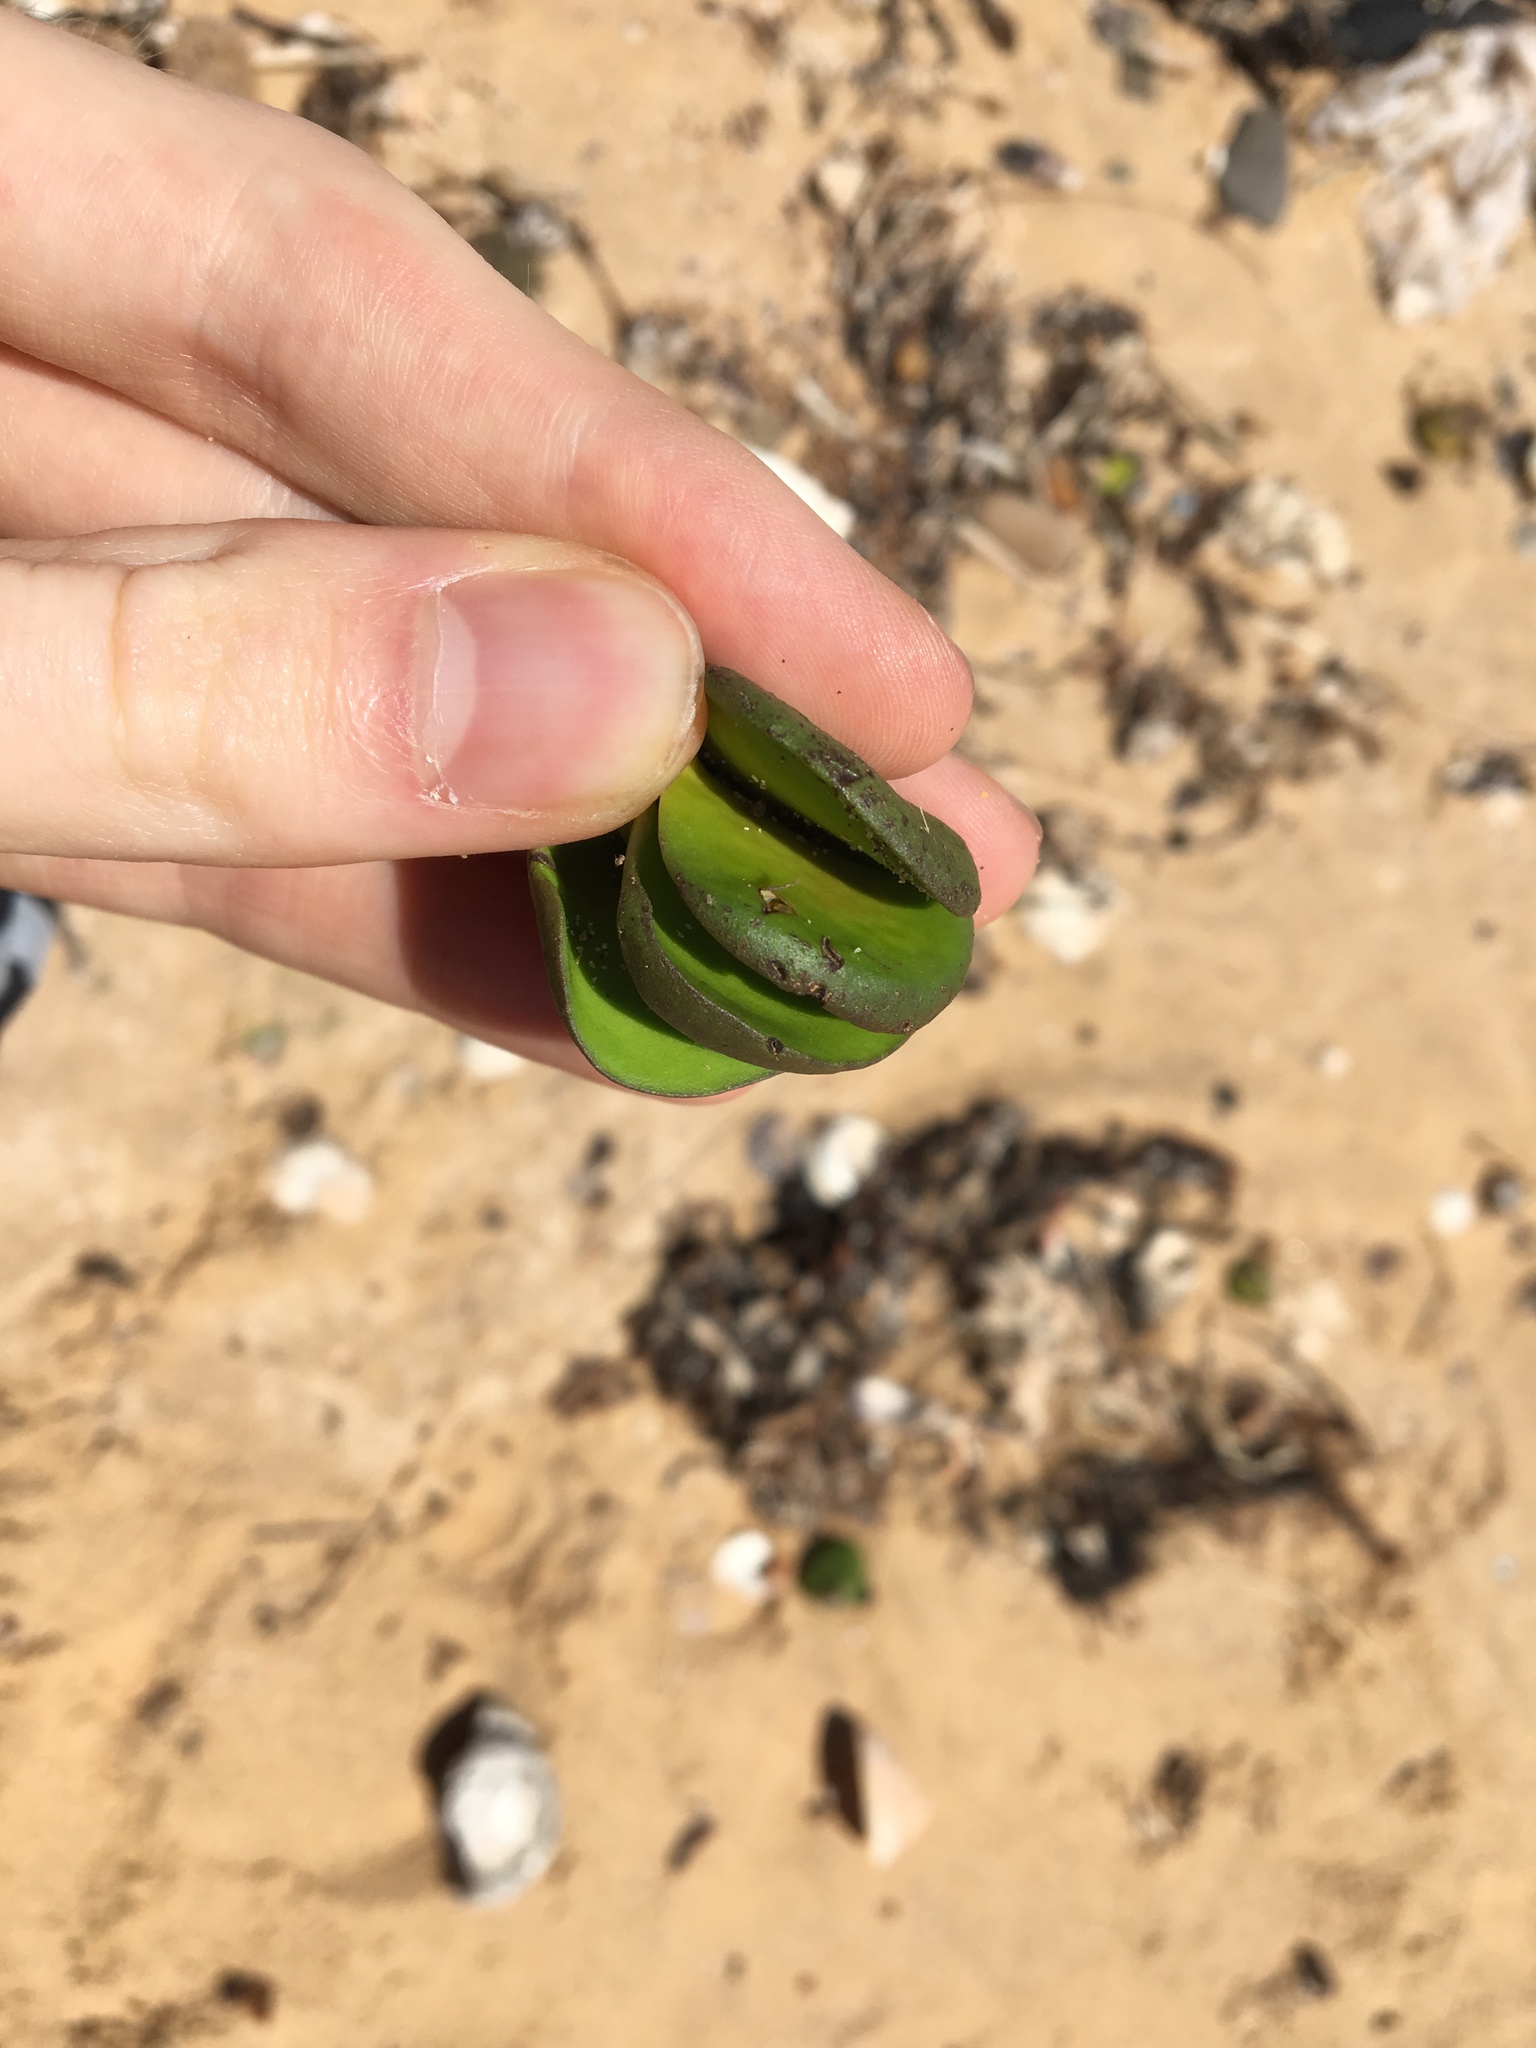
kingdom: Plantae
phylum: Tracheophyta
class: Magnoliopsida
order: Lamiales
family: Acanthaceae
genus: Avicennia
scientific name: Avicennia marina
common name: Gray mangrove
